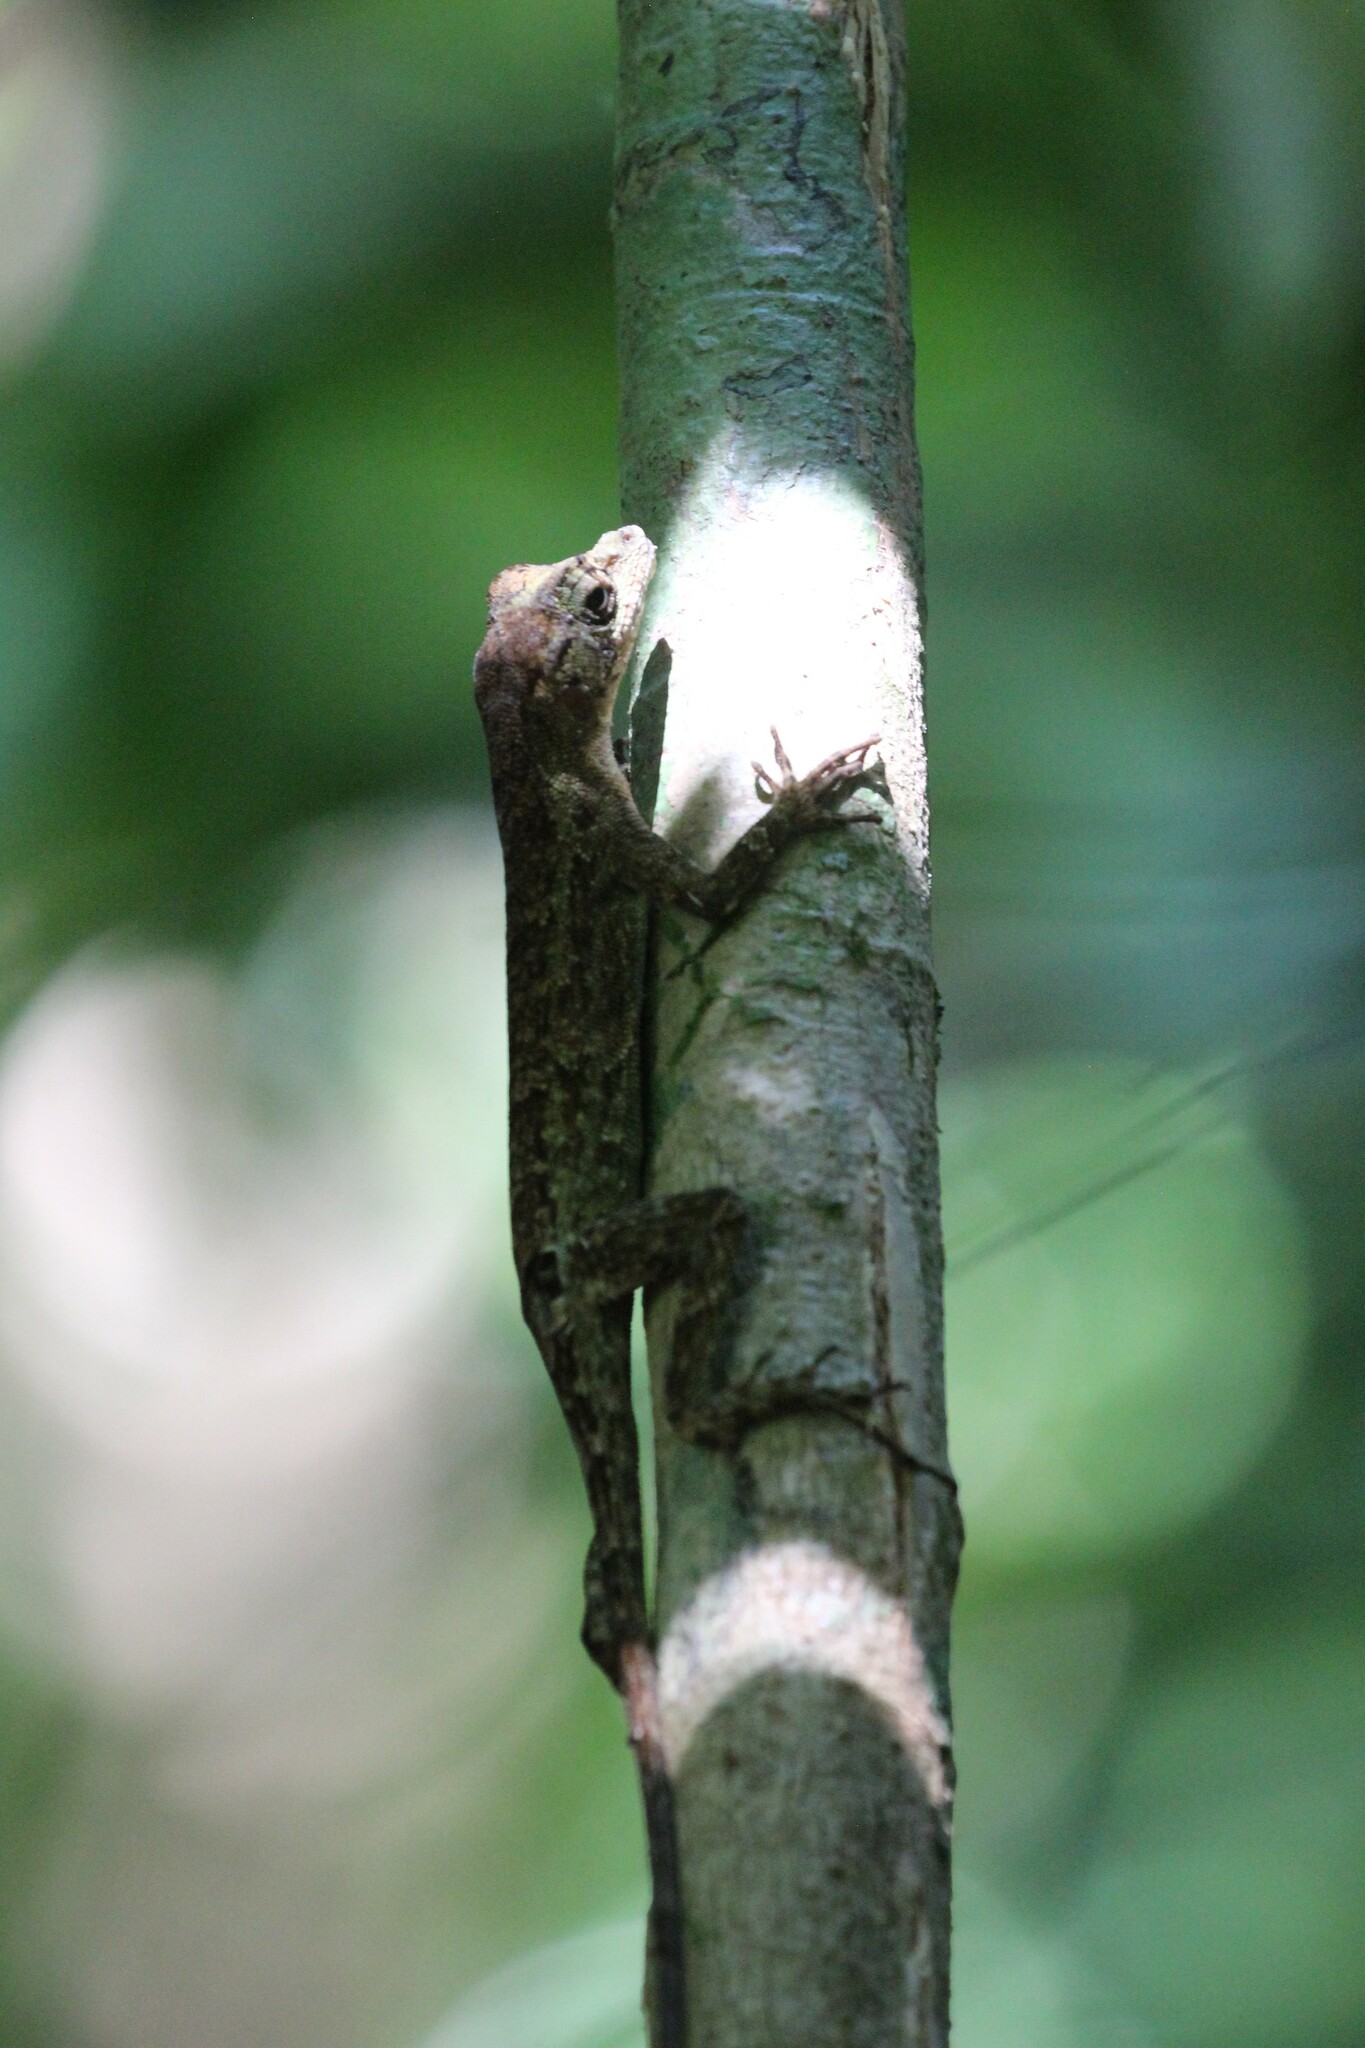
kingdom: Animalia
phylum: Chordata
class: Squamata
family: Dactyloidae
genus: Anolis
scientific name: Anolis capito
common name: Bighead anole
